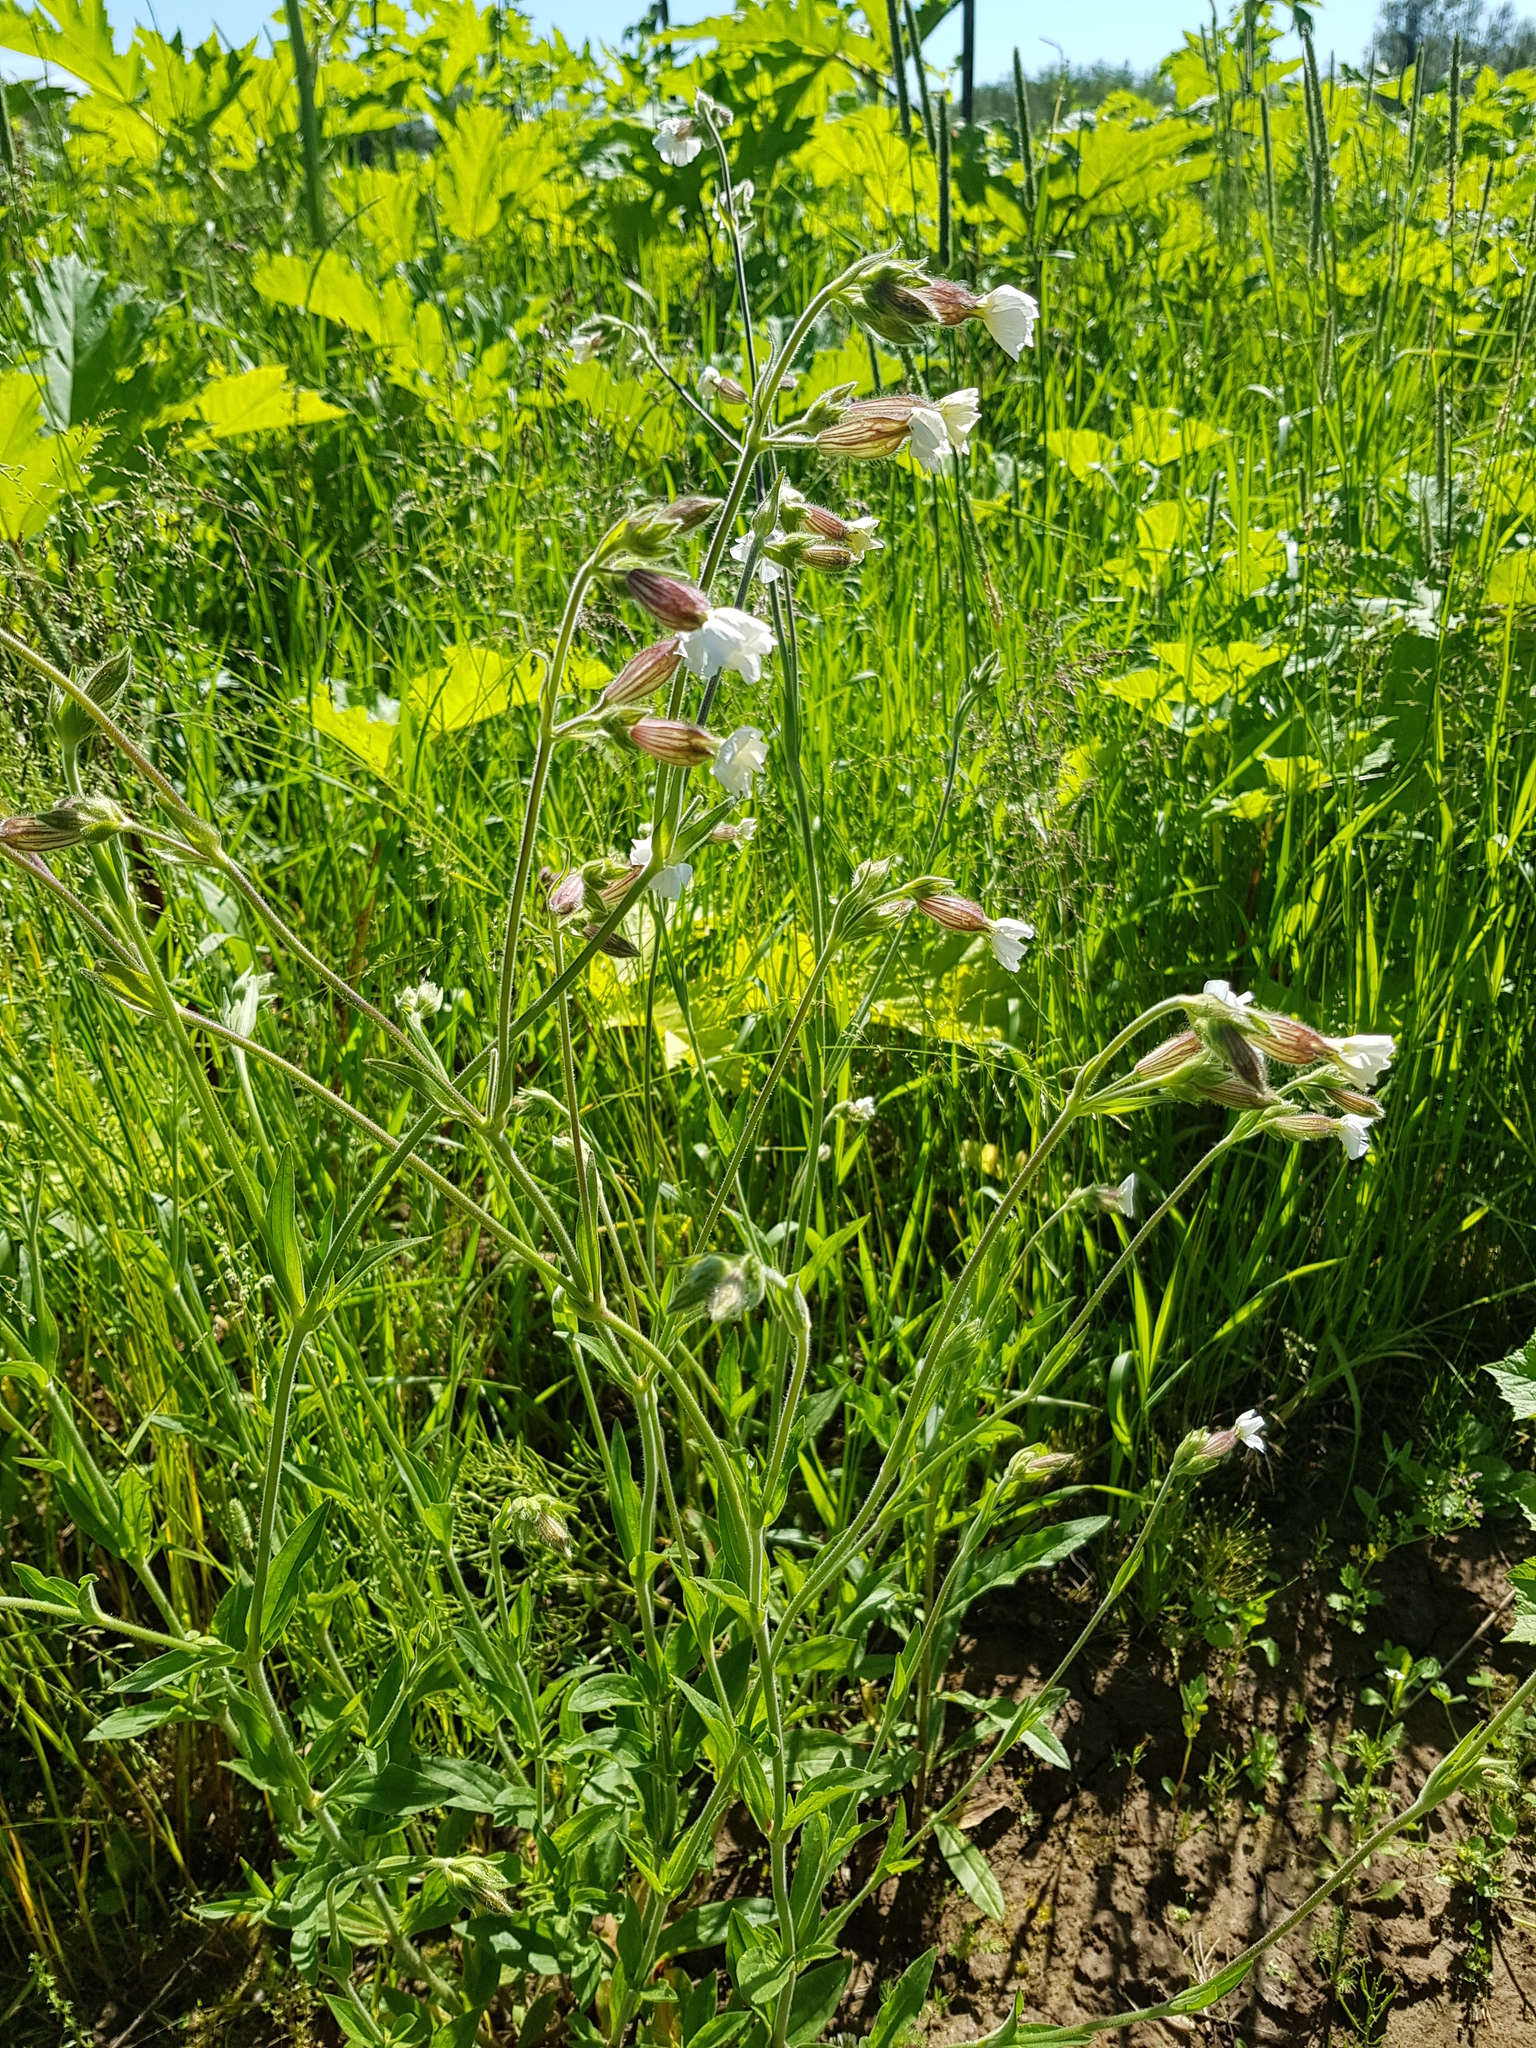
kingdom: Plantae
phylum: Tracheophyta
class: Magnoliopsida
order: Caryophyllales
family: Caryophyllaceae
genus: Silene
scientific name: Silene latifolia
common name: White campion
